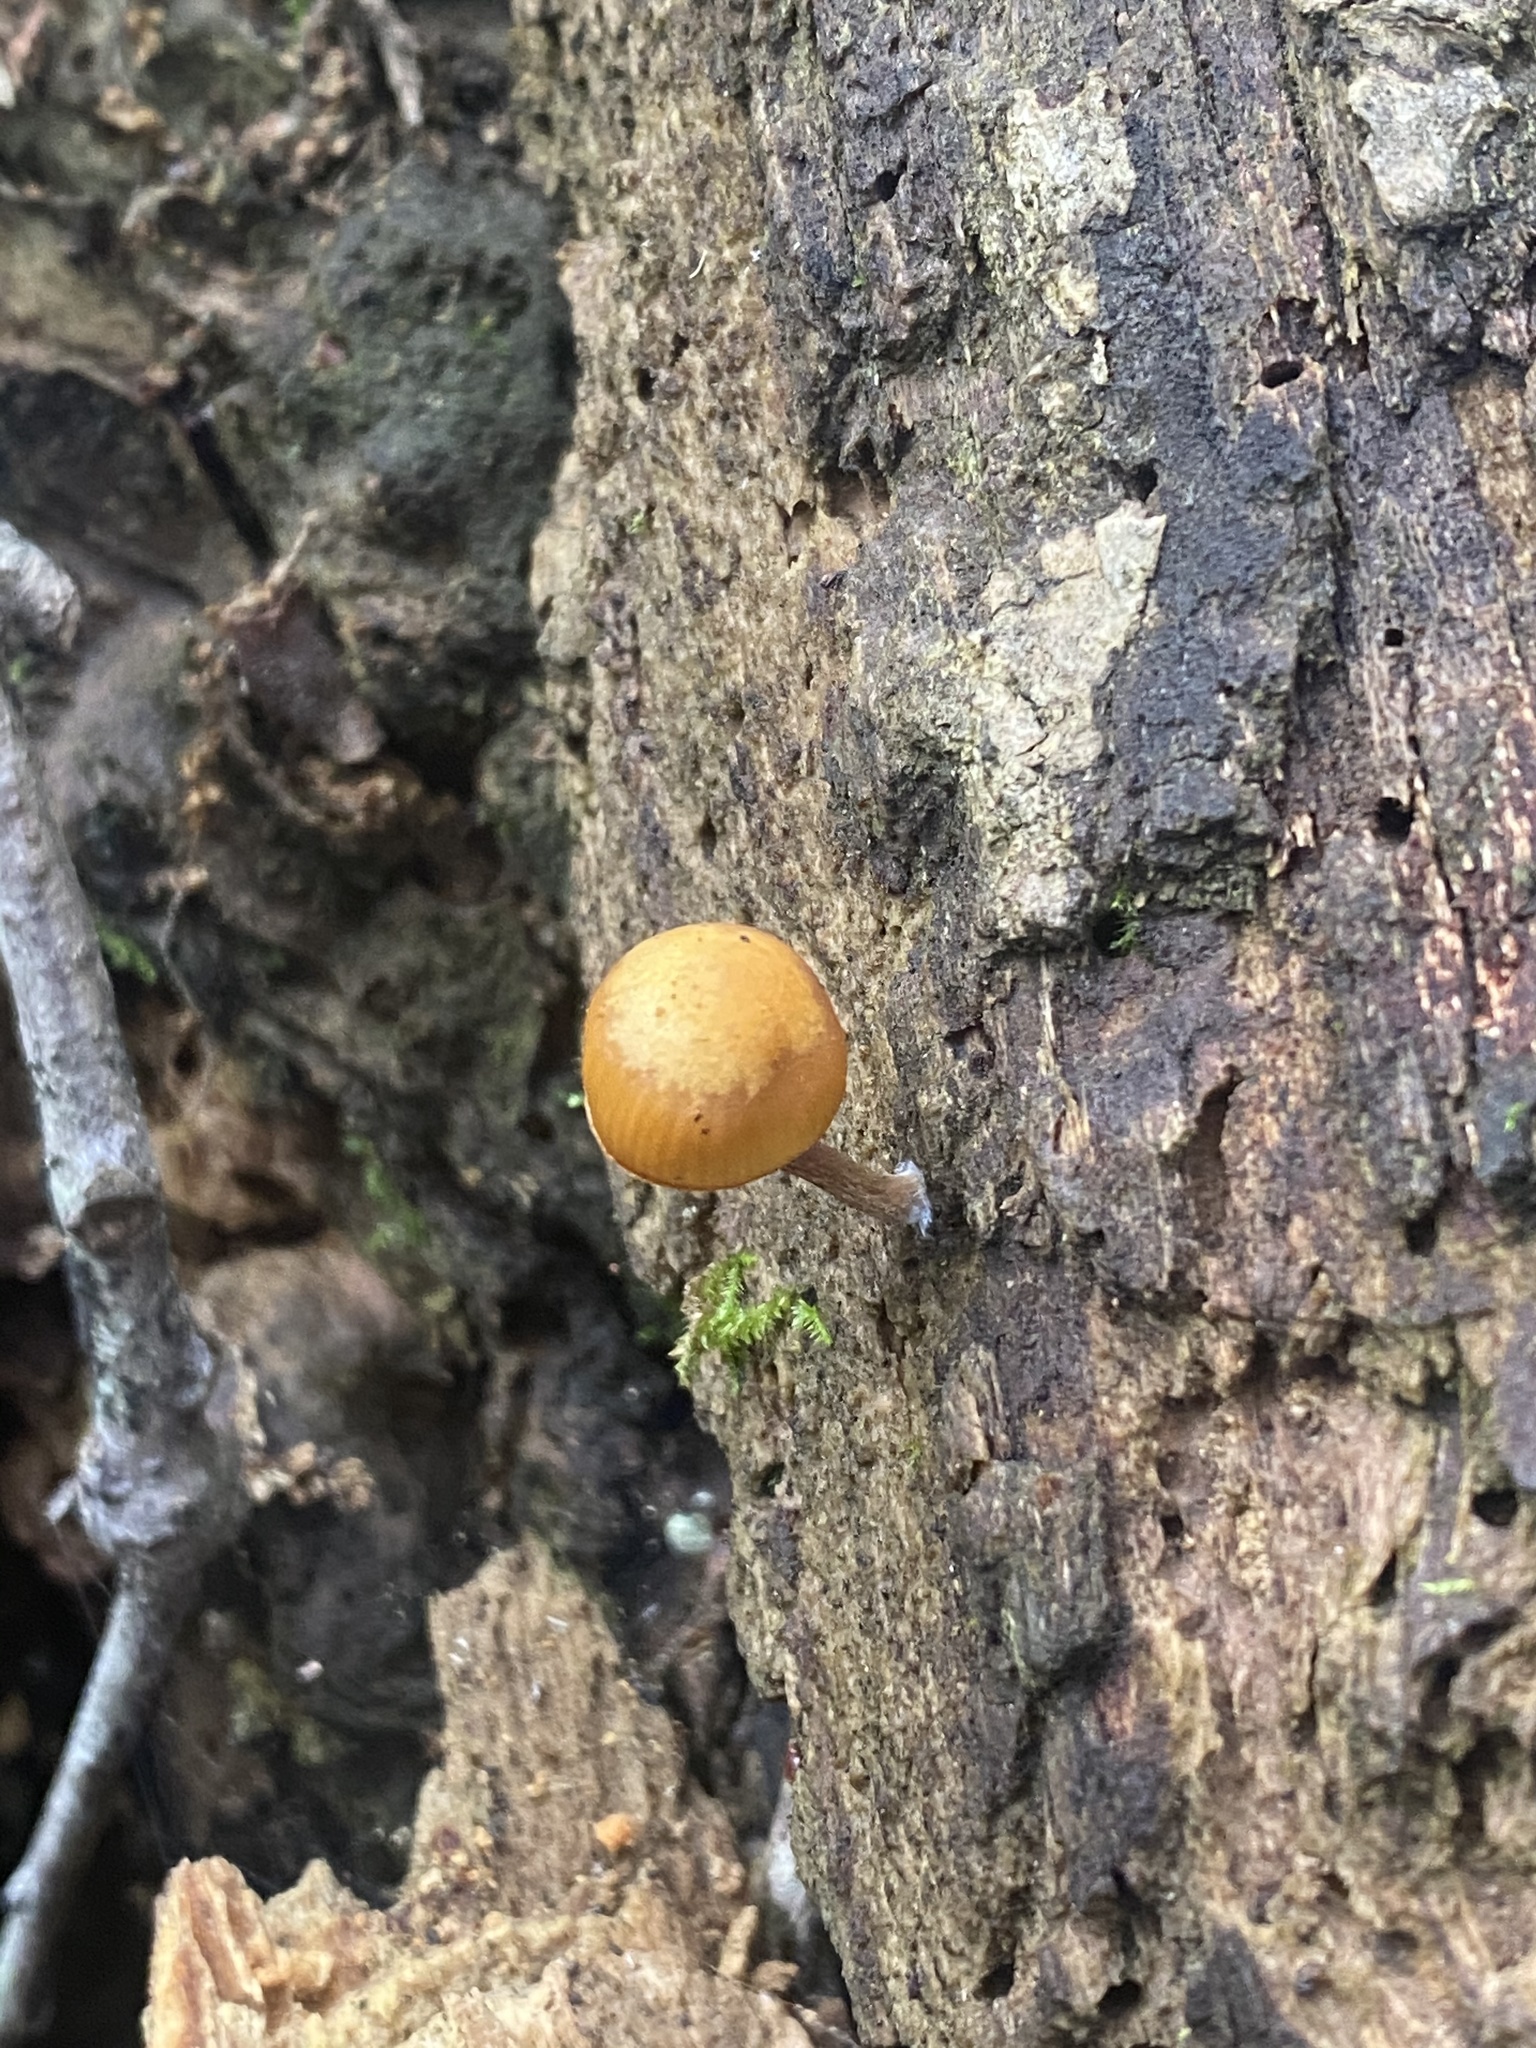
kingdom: Fungi
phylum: Basidiomycota
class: Agaricomycetes
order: Agaricales
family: Hymenogastraceae
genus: Galerina
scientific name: Galerina marginata
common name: Funeral bell
